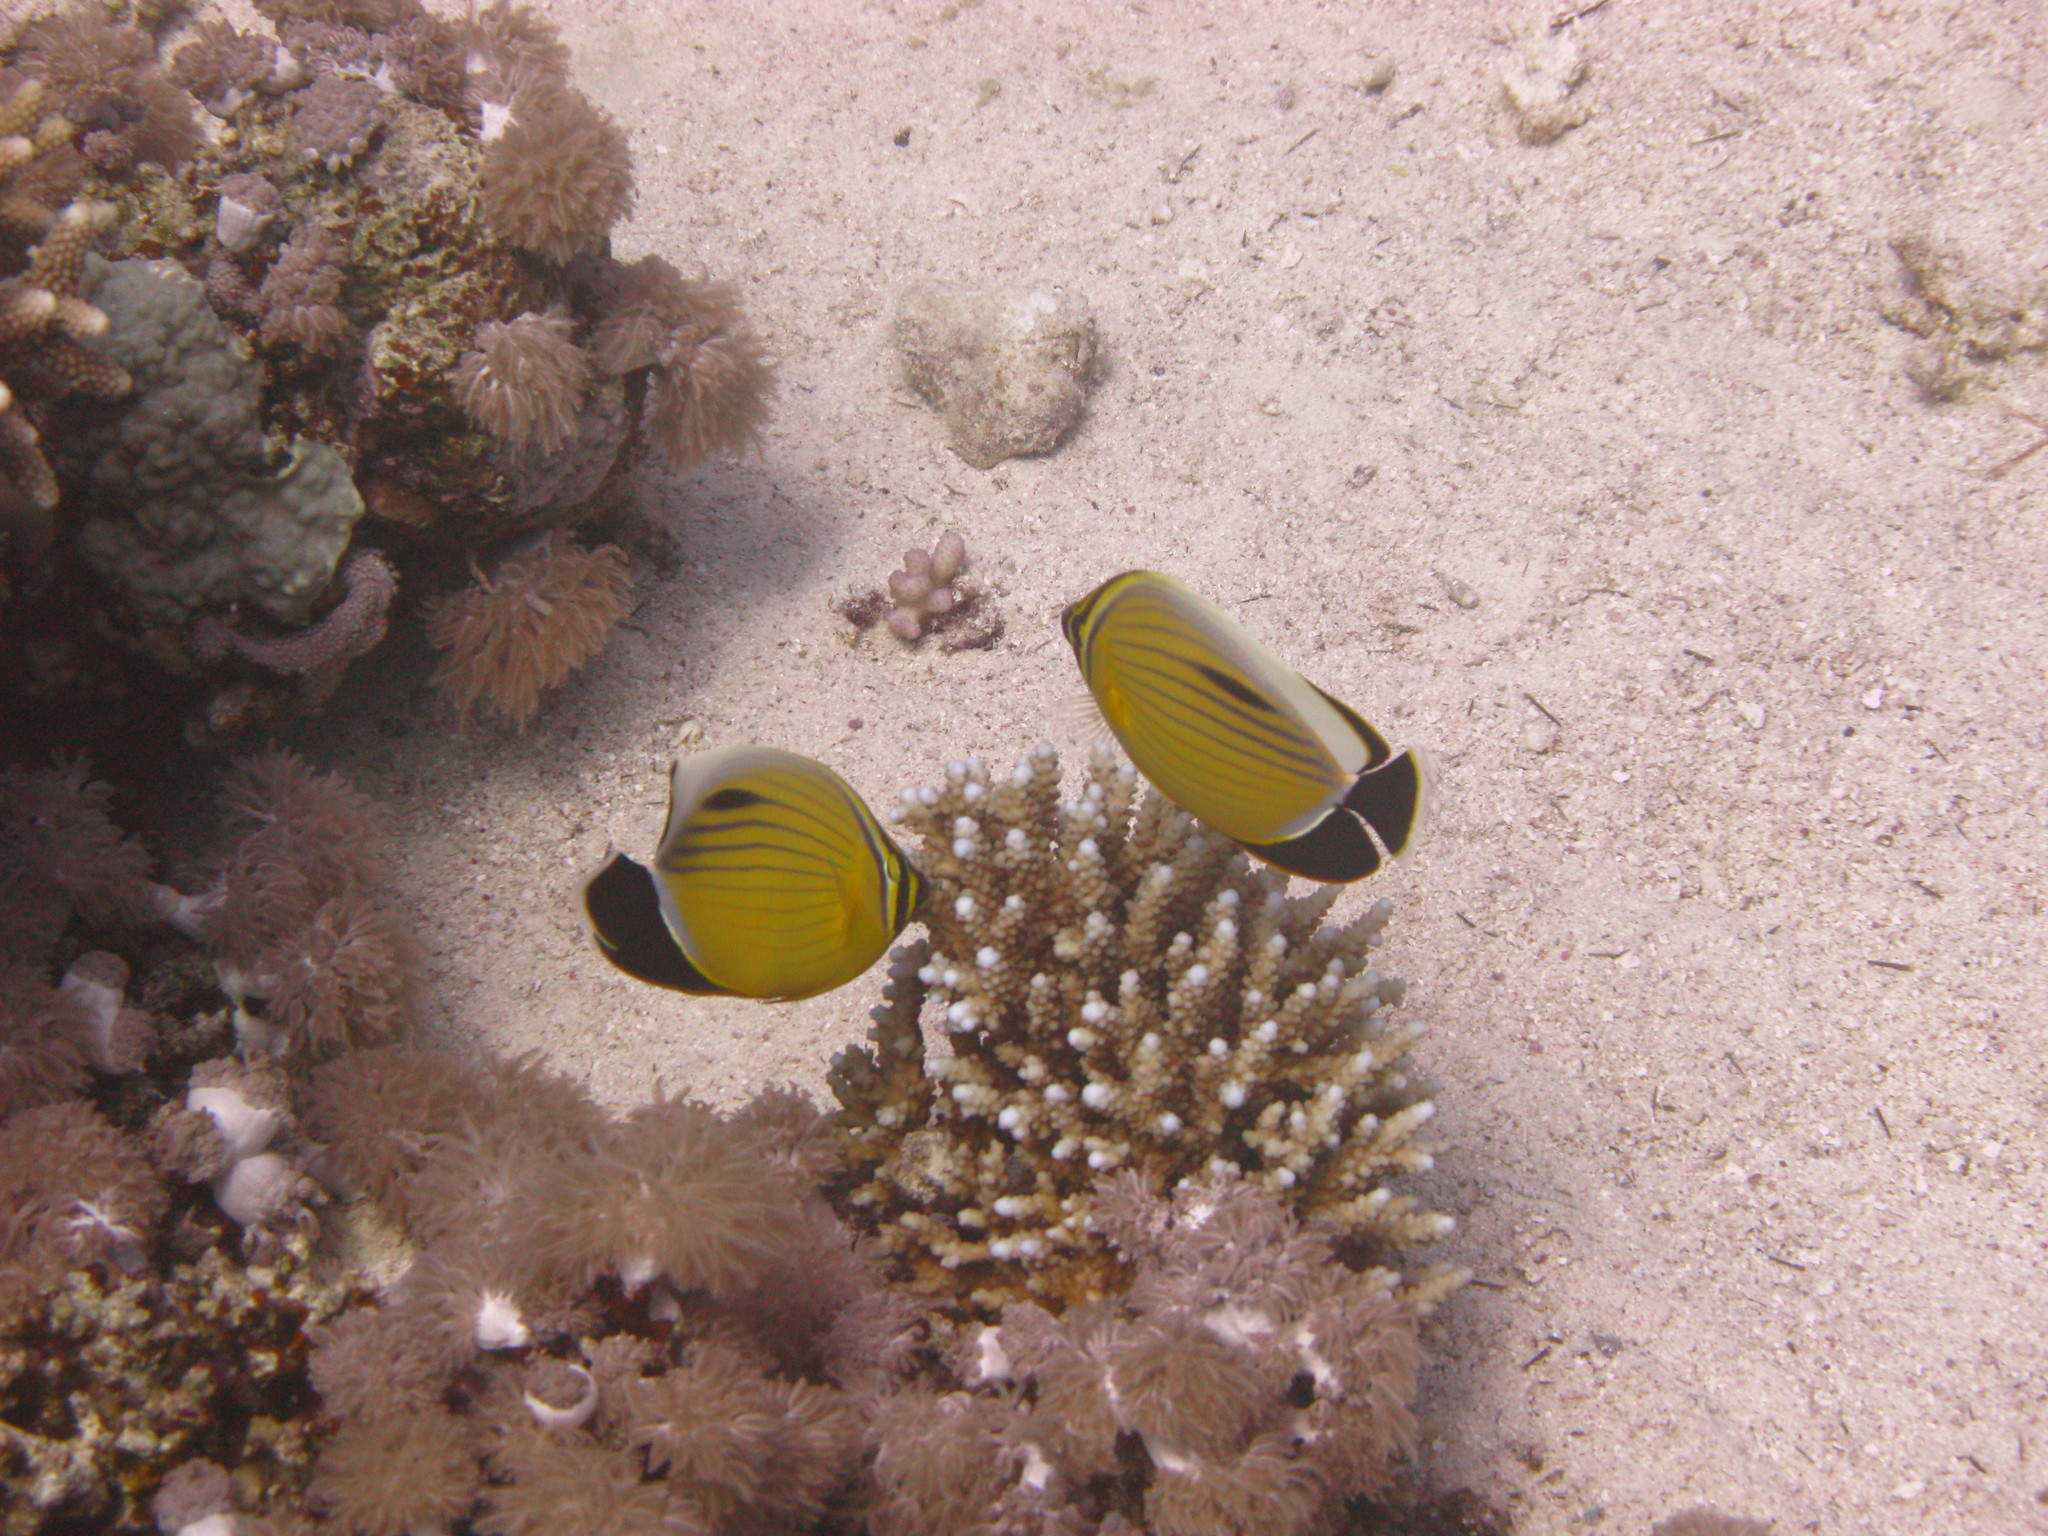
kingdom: Animalia
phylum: Chordata
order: Perciformes
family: Chaetodontidae
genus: Chaetodon
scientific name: Chaetodon austriacus
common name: Exquisite butterflyfish
